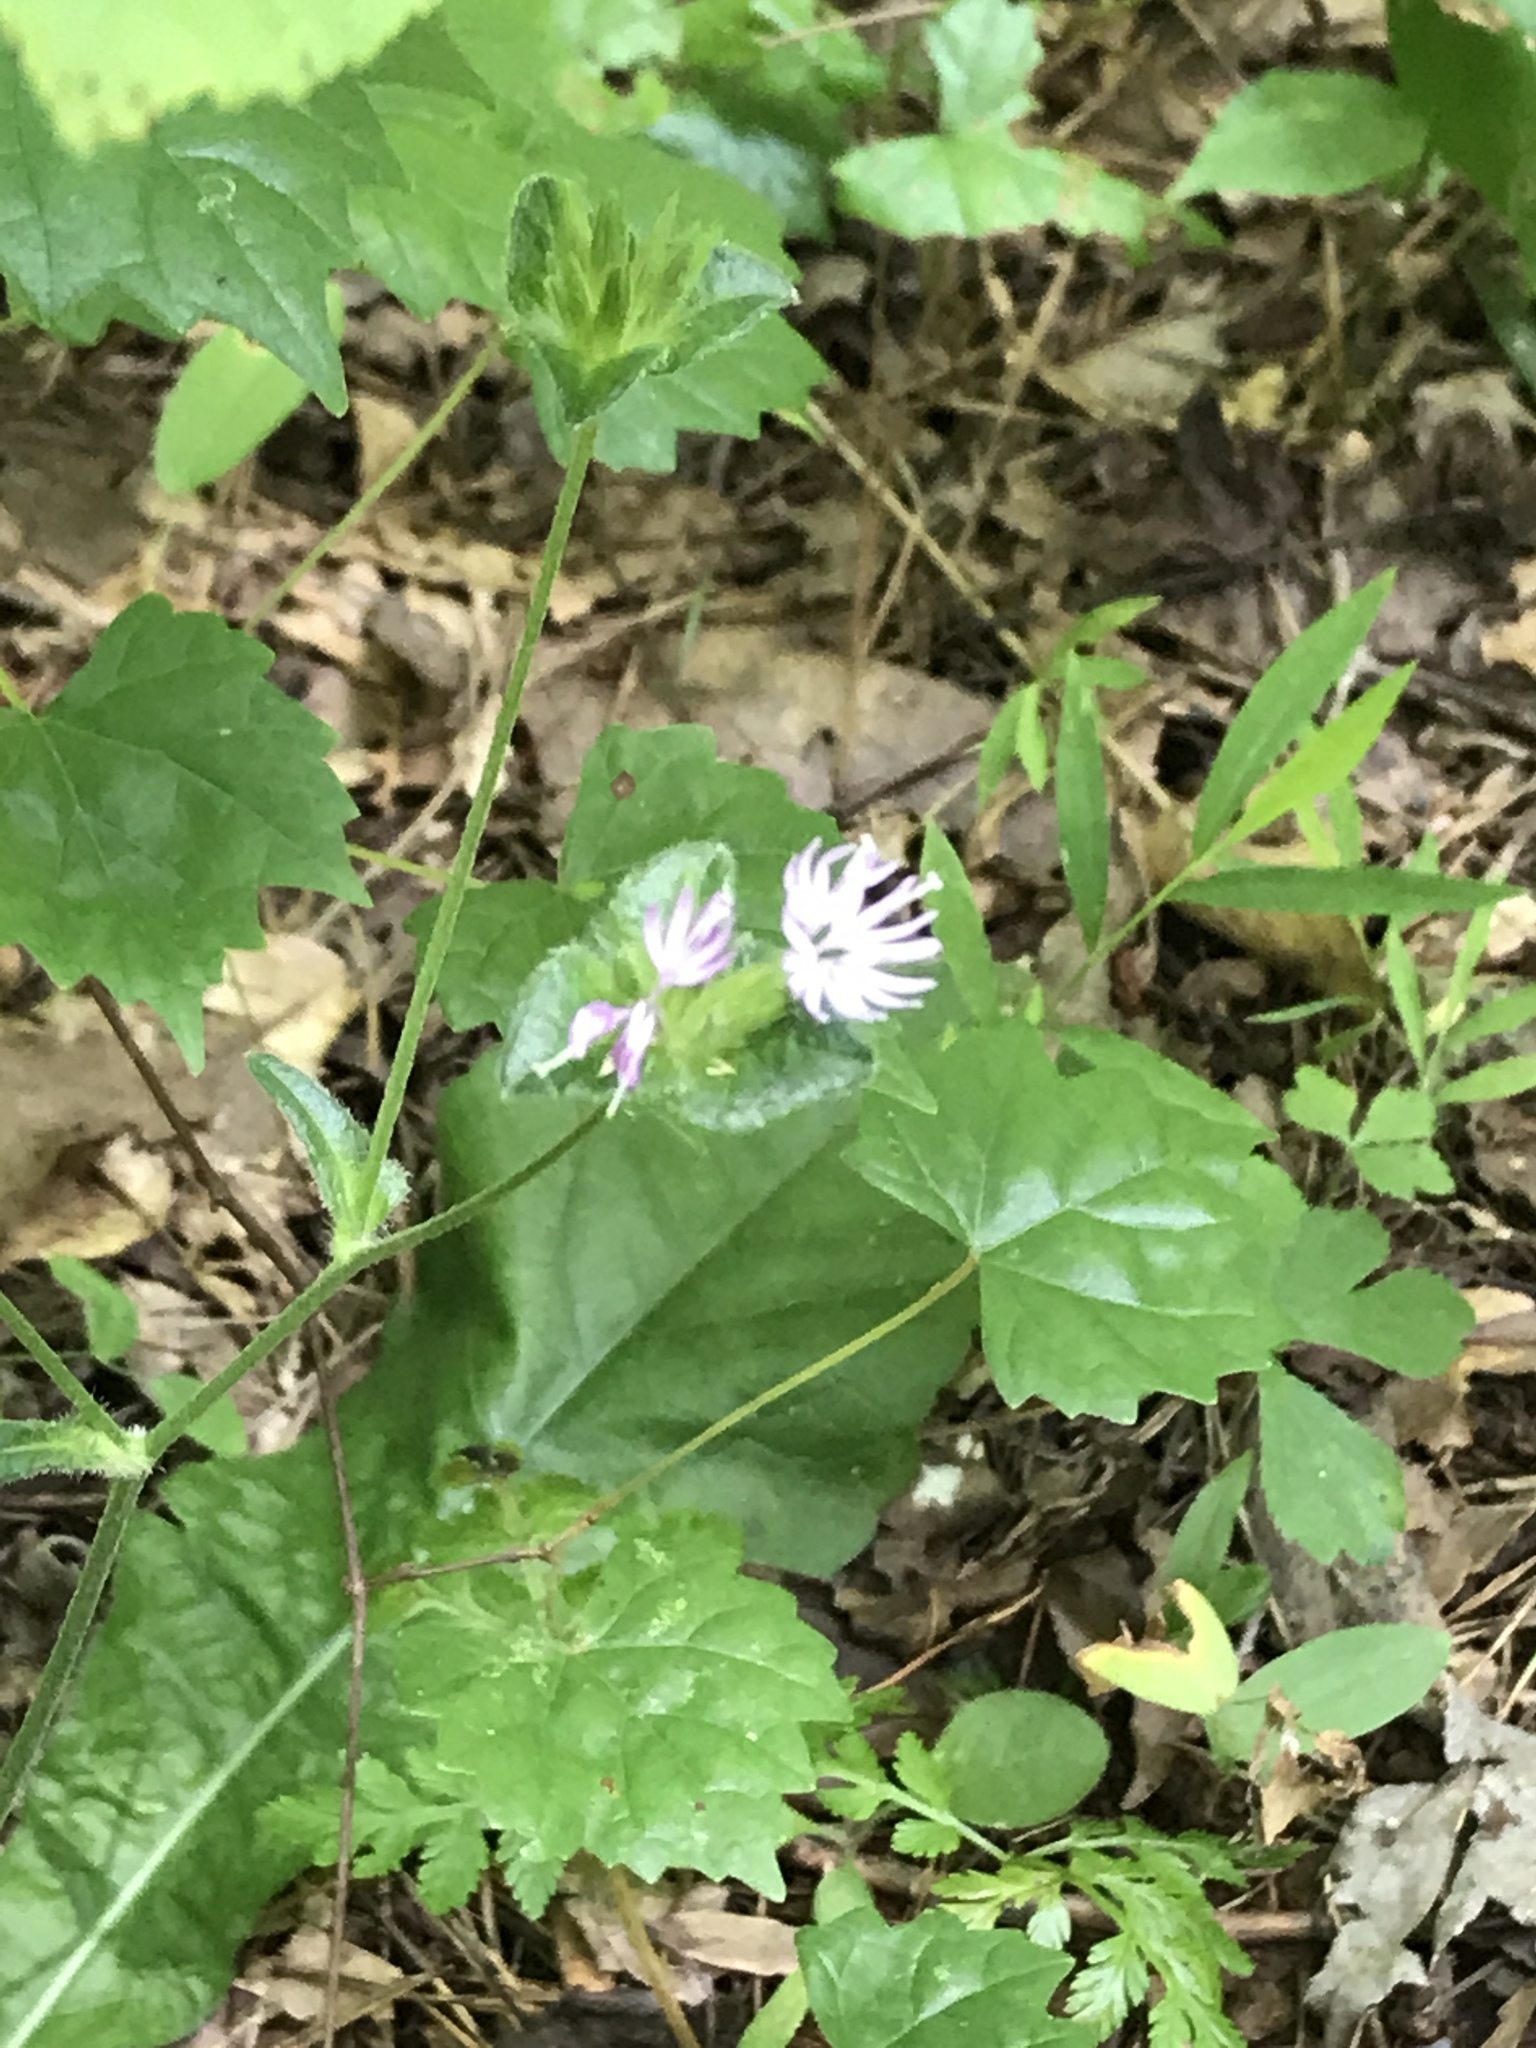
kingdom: Plantae
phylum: Tracheophyta
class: Magnoliopsida
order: Asterales
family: Asteraceae
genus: Elephantopus
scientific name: Elephantopus tomentosus
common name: Tobacco-weed
